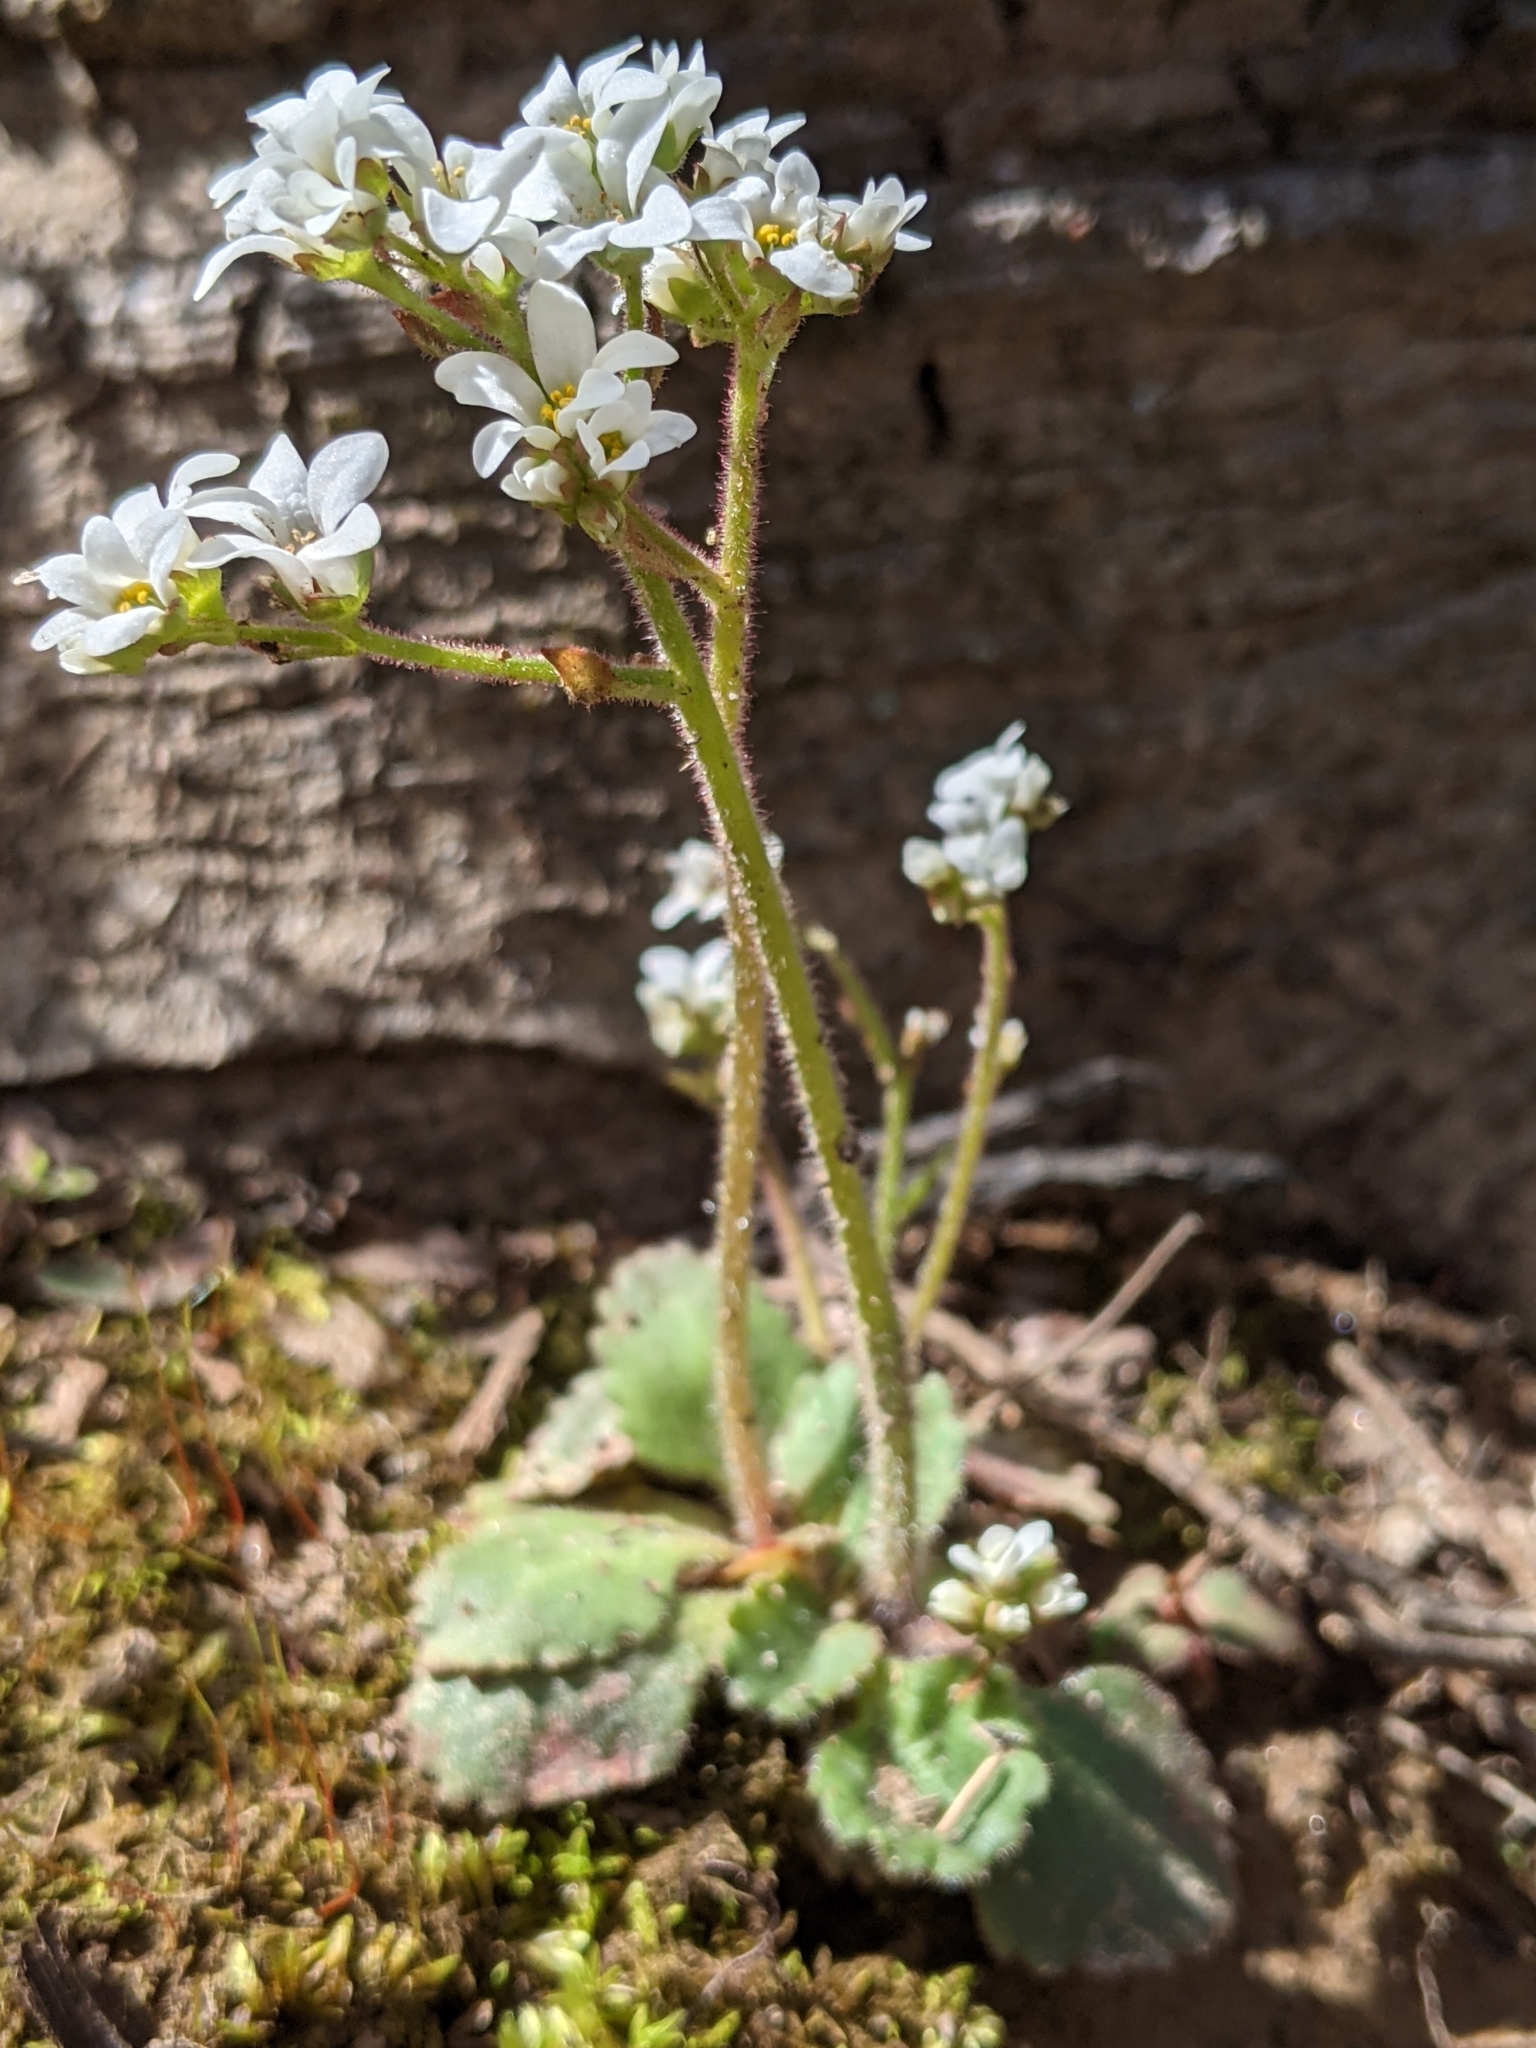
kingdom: Plantae
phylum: Tracheophyta
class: Magnoliopsida
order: Saxifragales
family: Saxifragaceae
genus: Micranthes
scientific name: Micranthes virginiensis
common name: Early saxifrage
